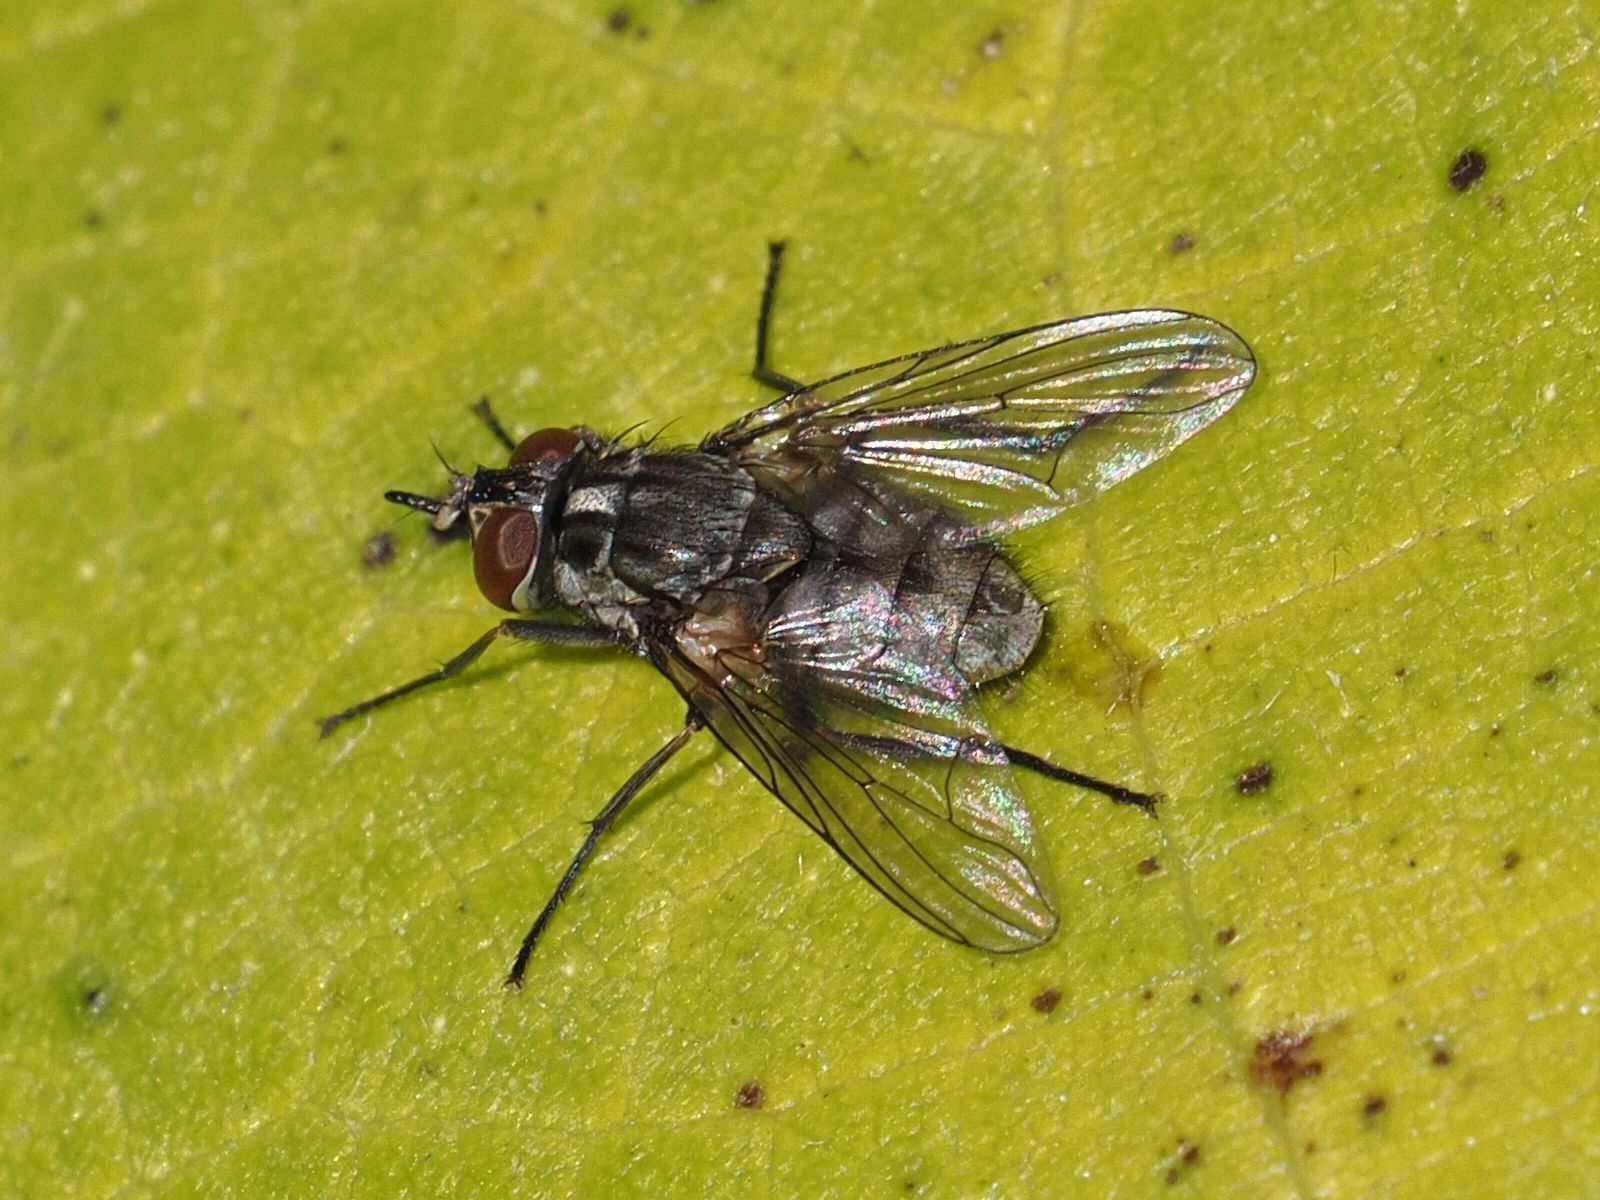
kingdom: Animalia
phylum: Arthropoda
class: Insecta
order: Diptera
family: Muscidae
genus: Stomoxys
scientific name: Stomoxys calcitrans
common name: Stable fly
